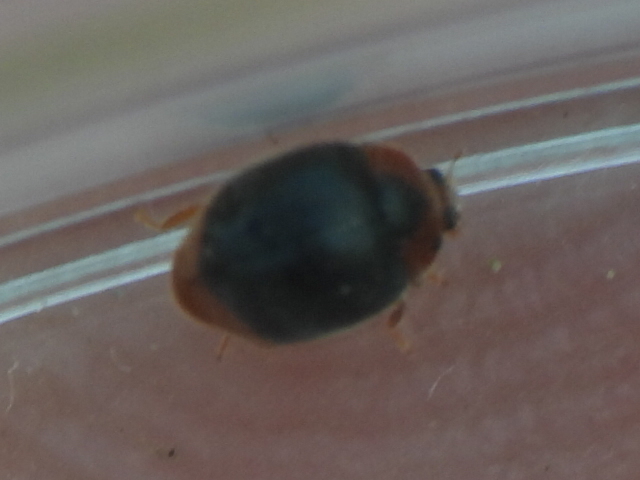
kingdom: Animalia
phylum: Arthropoda
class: Insecta
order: Coleoptera
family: Coccinellidae
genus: Scymnus
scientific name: Scymnus louisianae
